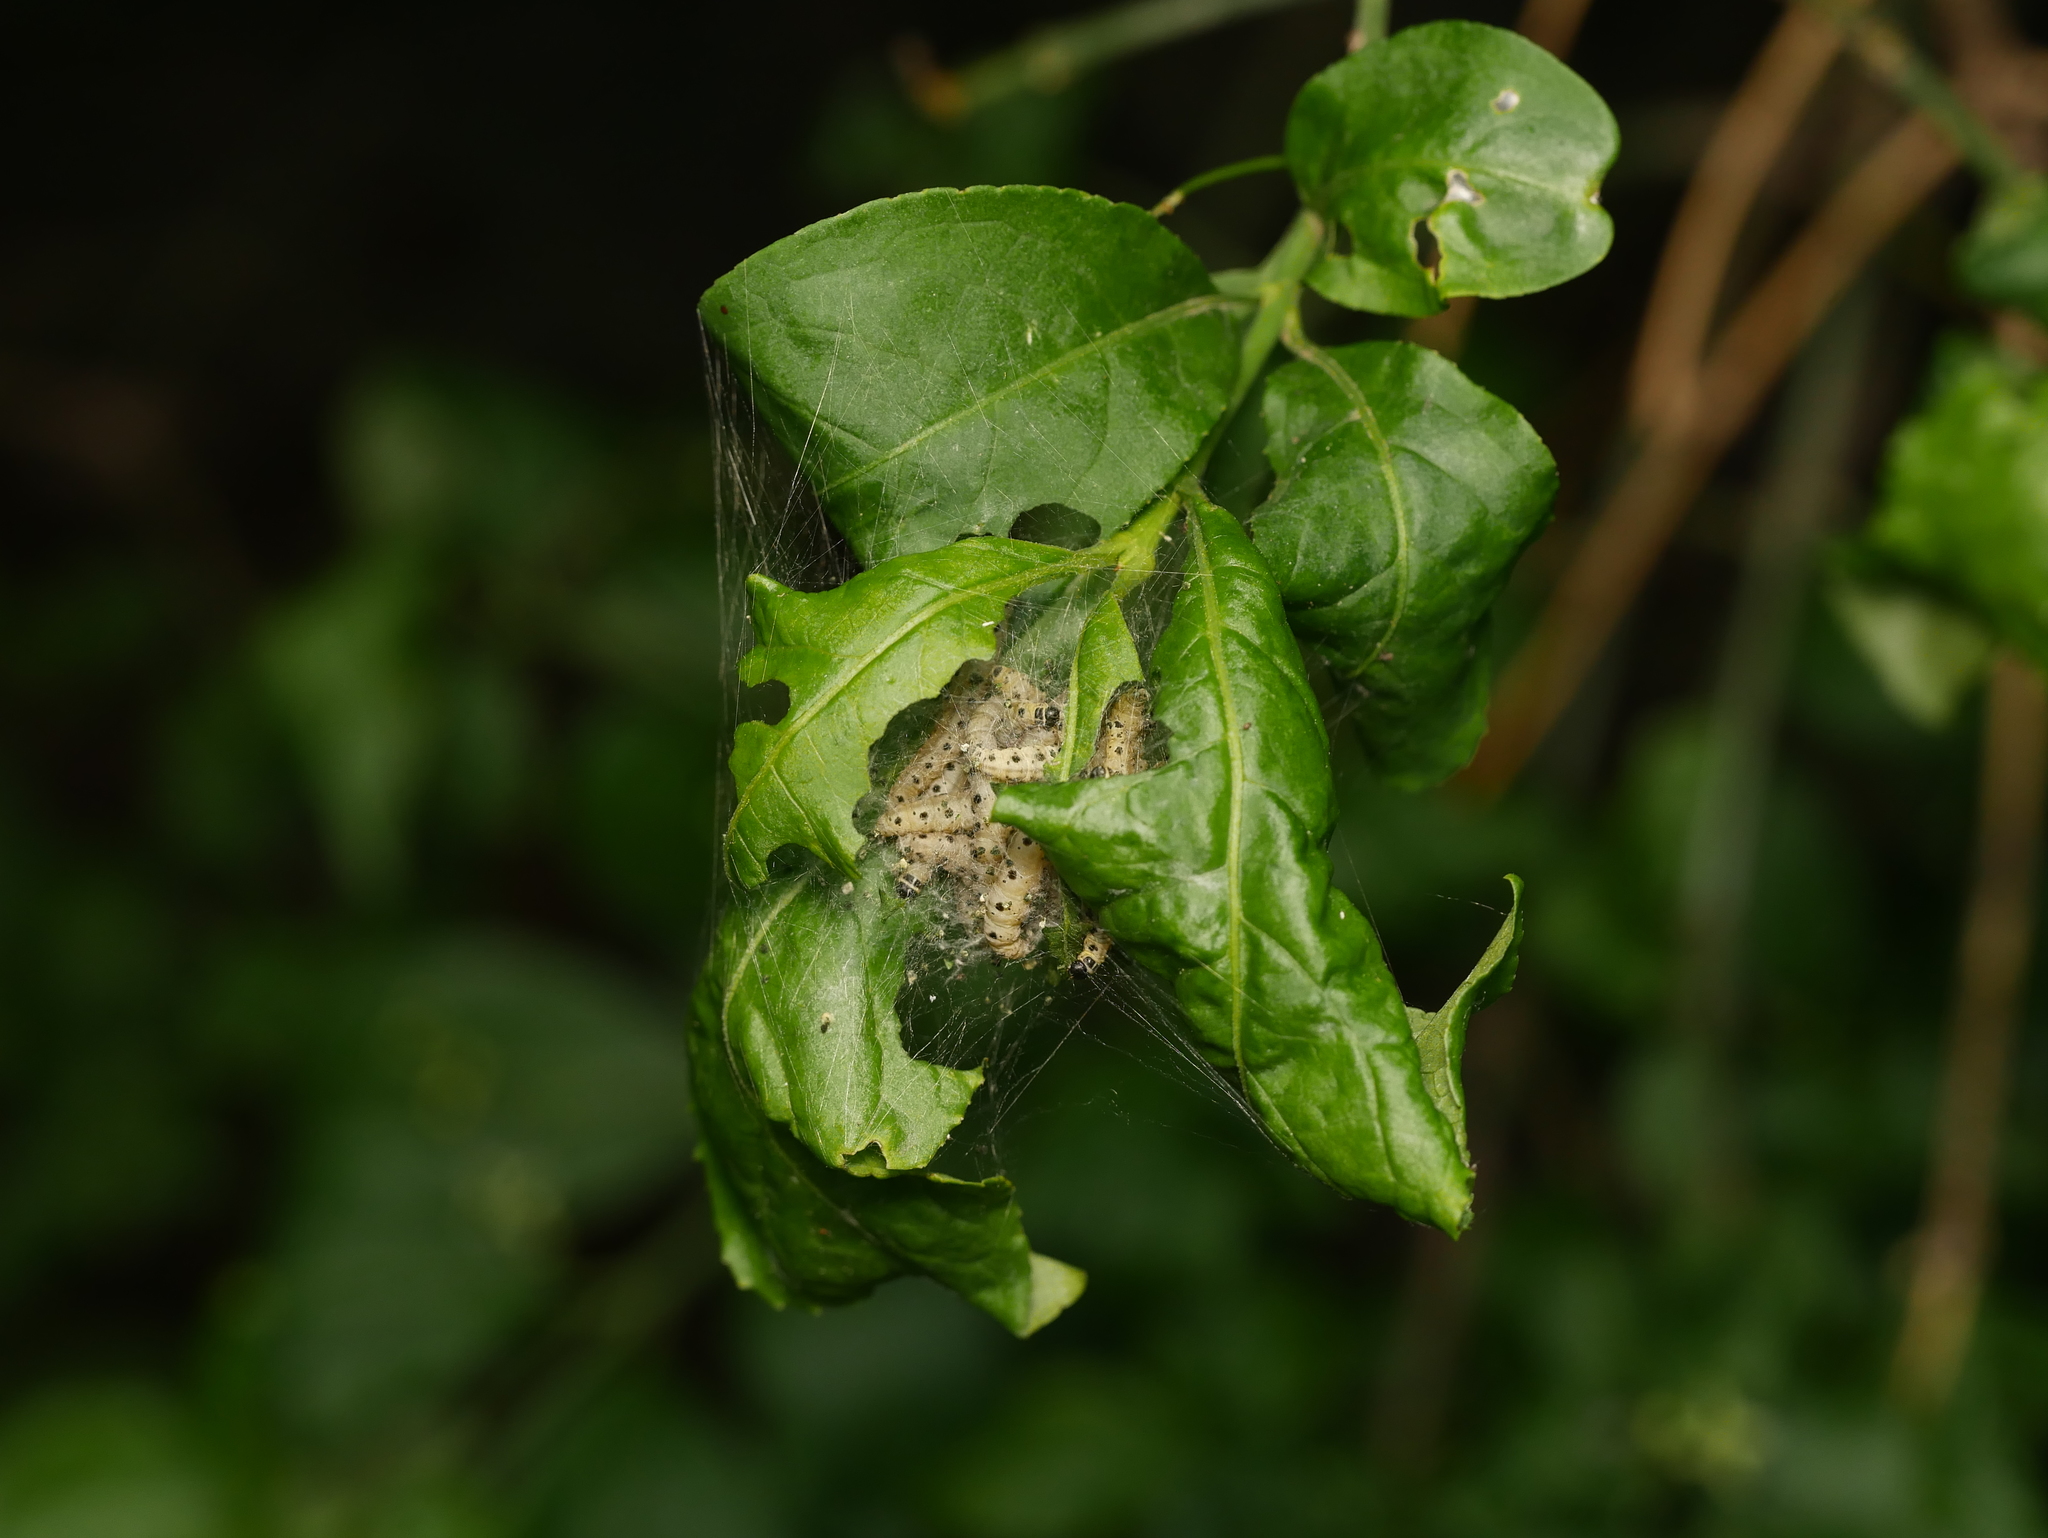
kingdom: Animalia
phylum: Arthropoda
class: Insecta
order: Lepidoptera
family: Yponomeutidae
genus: Yponomeuta
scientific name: Yponomeuta cagnagellus
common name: Spindle ermine
